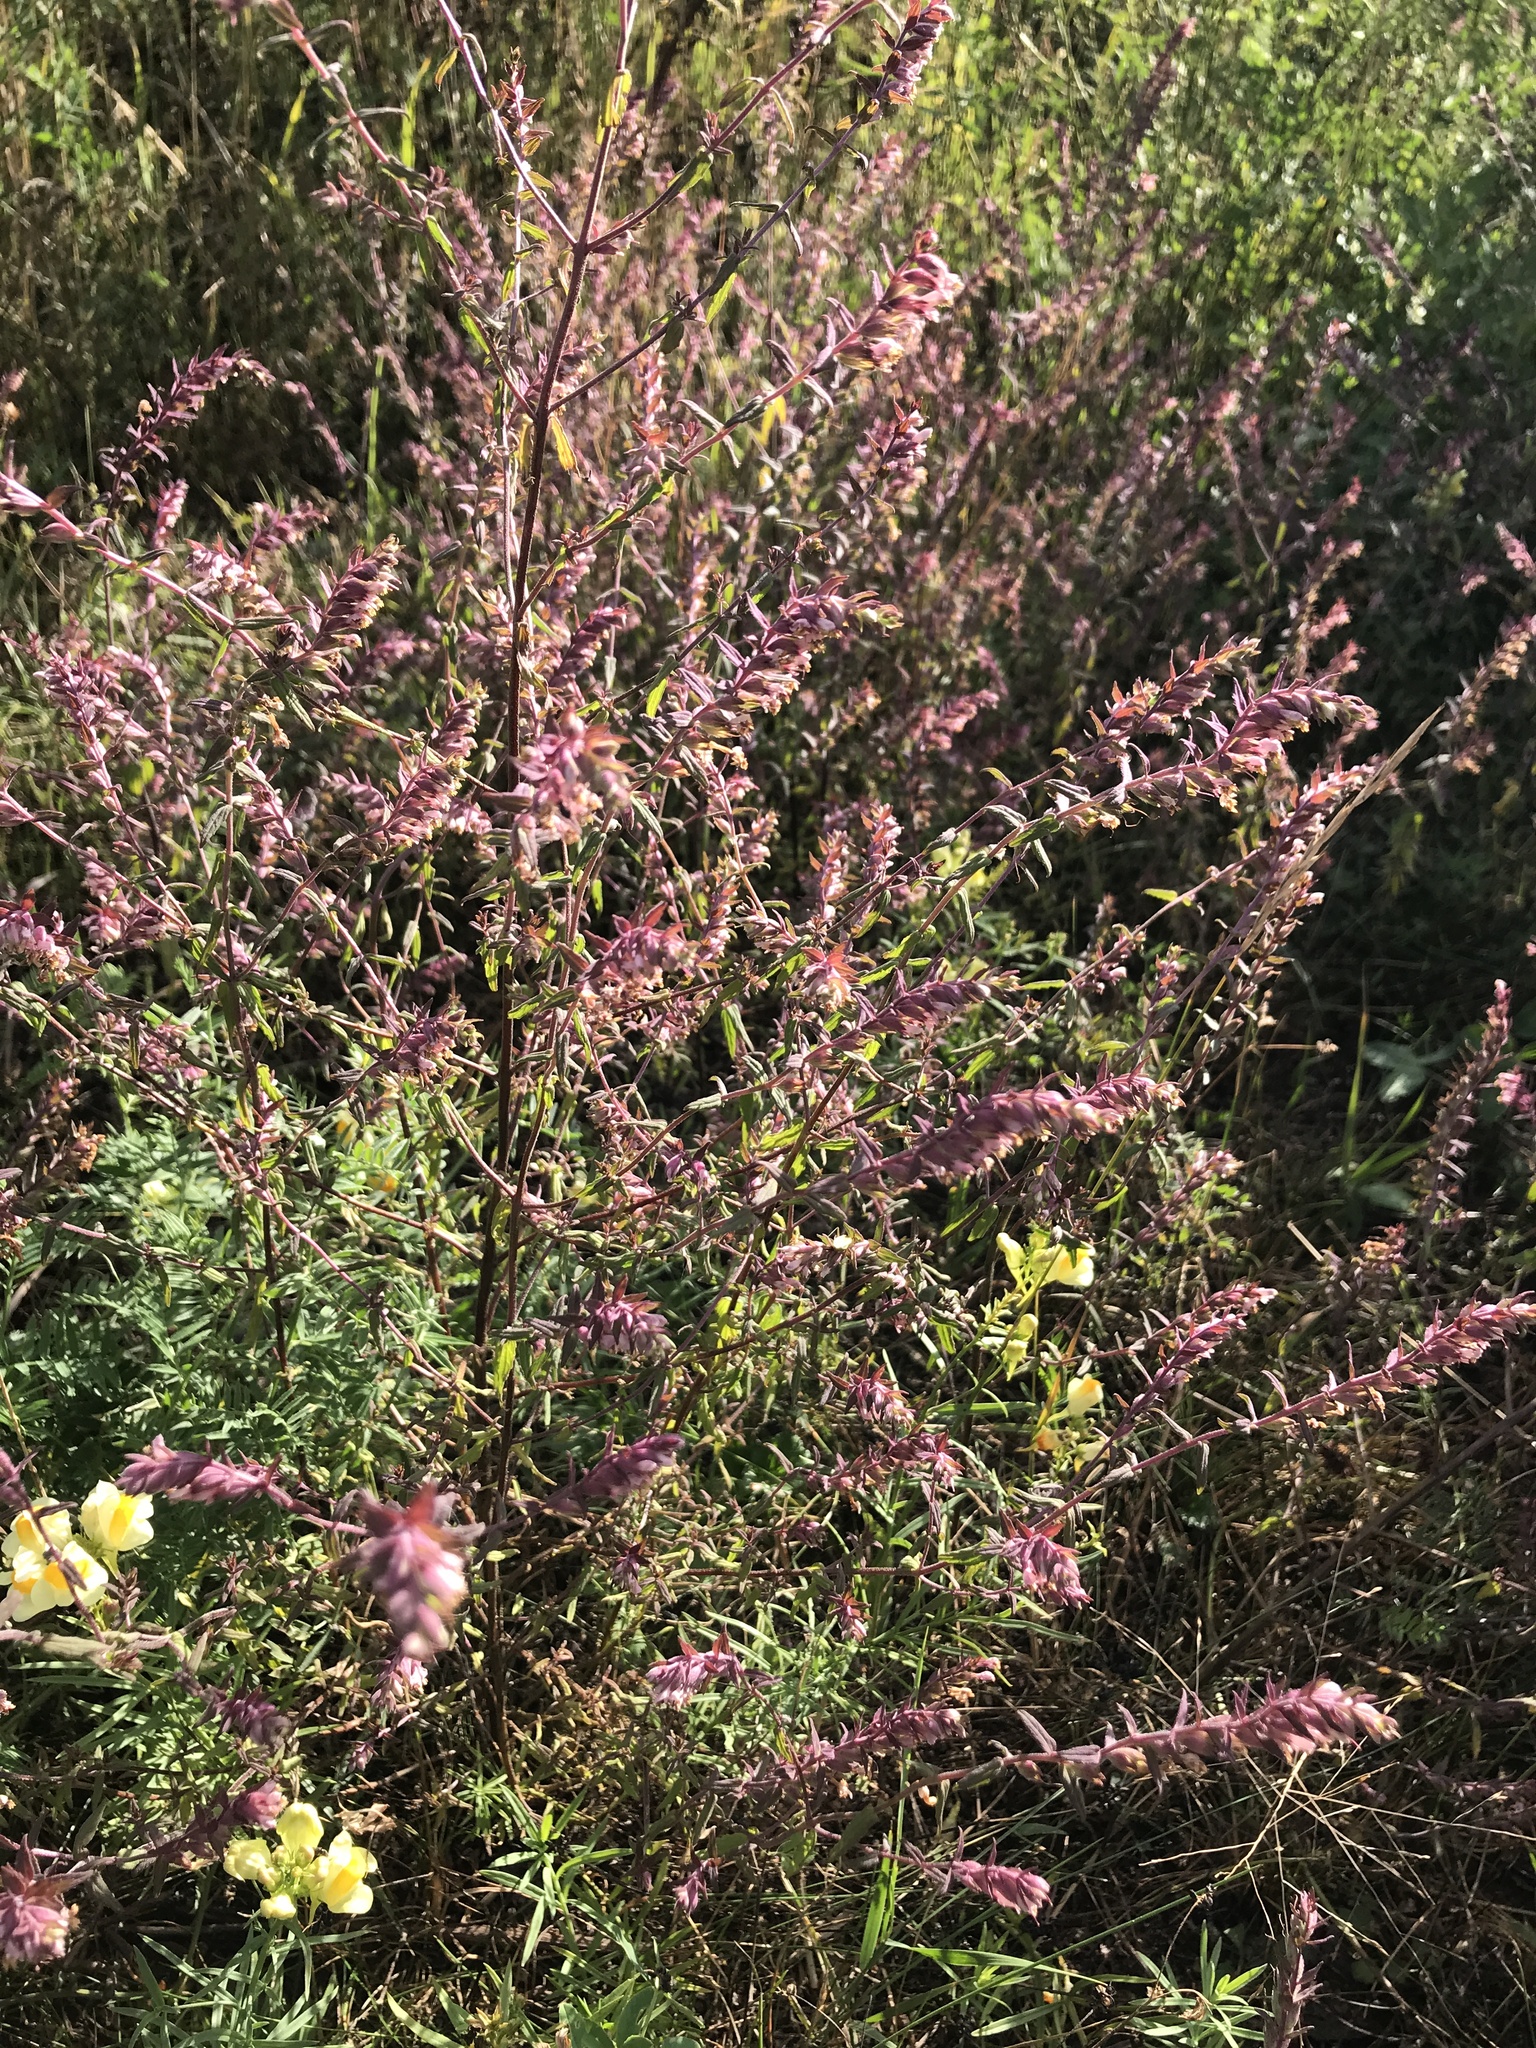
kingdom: Plantae
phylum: Tracheophyta
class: Magnoliopsida
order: Lamiales
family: Orobanchaceae
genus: Odontites
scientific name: Odontites vulgaris
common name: Broomrape
